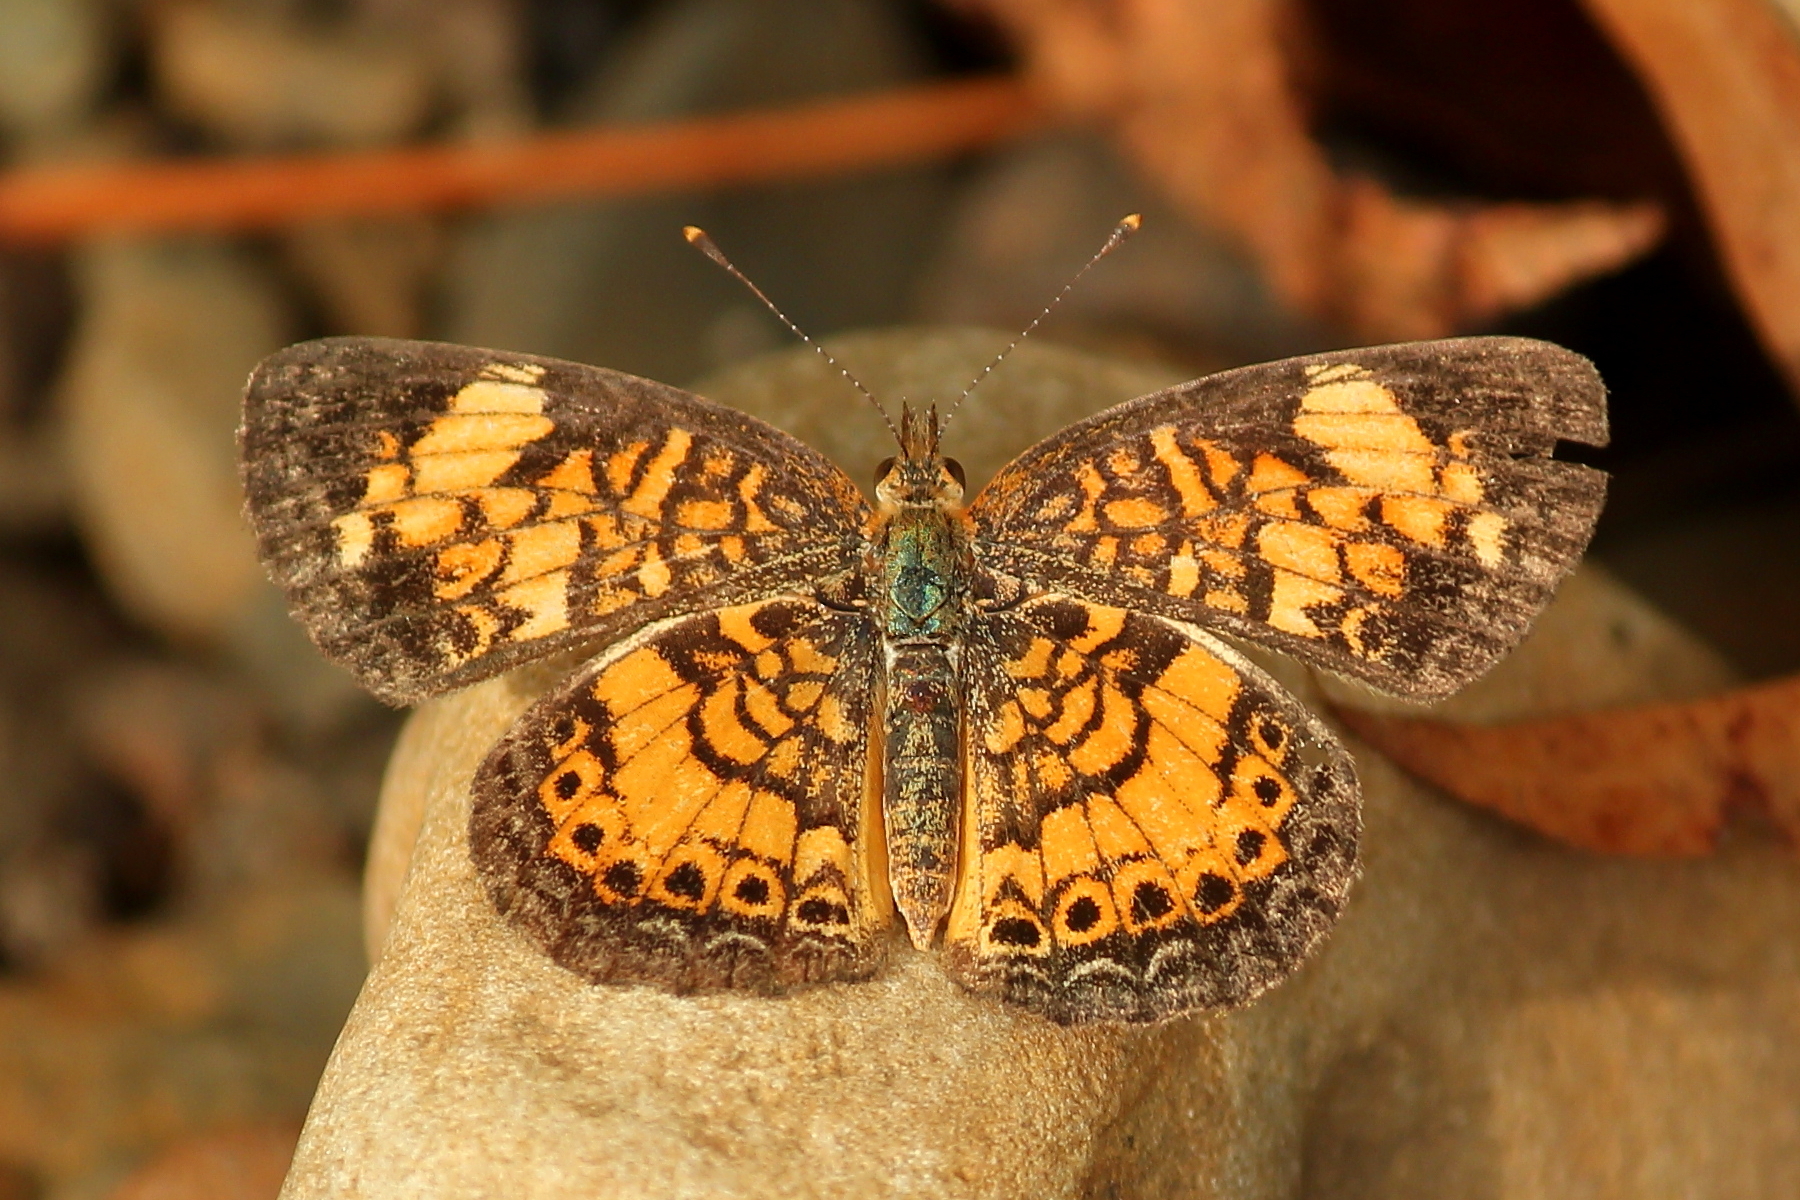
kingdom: Animalia
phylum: Arthropoda
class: Insecta
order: Lepidoptera
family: Nymphalidae
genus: Phyciodes
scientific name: Phyciodes tharos
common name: Pearl crescent
